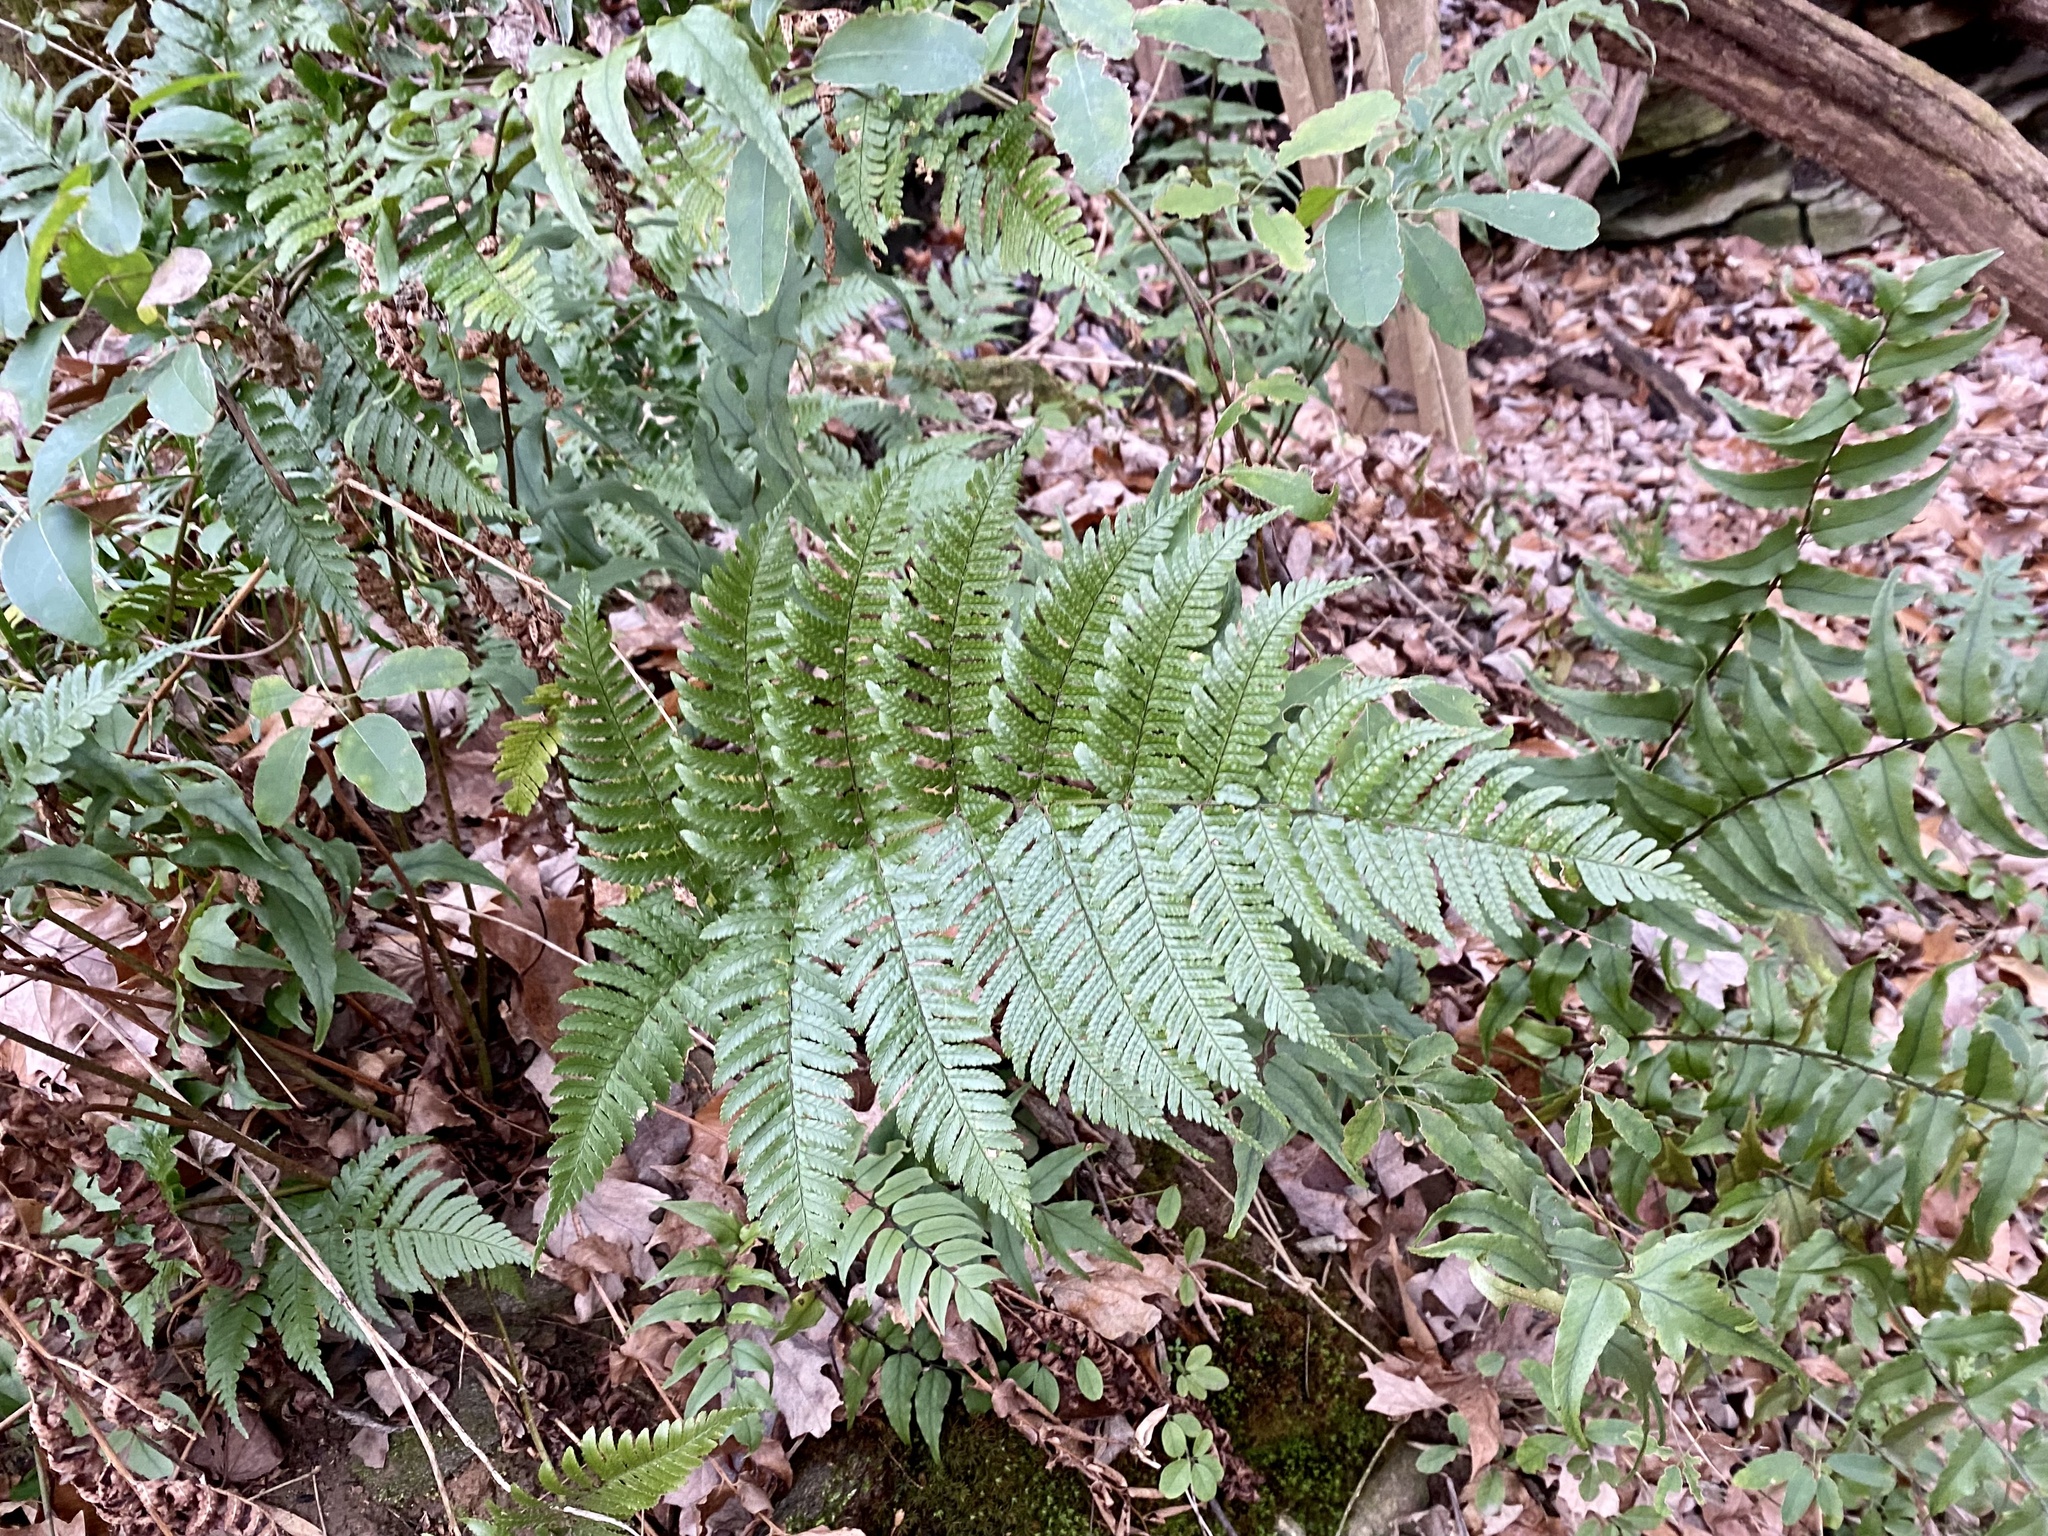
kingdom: Plantae
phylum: Tracheophyta
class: Polypodiopsida
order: Polypodiales
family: Dryopteridaceae
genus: Dryopteris
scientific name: Dryopteris erythrosora
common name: Autumn fern
